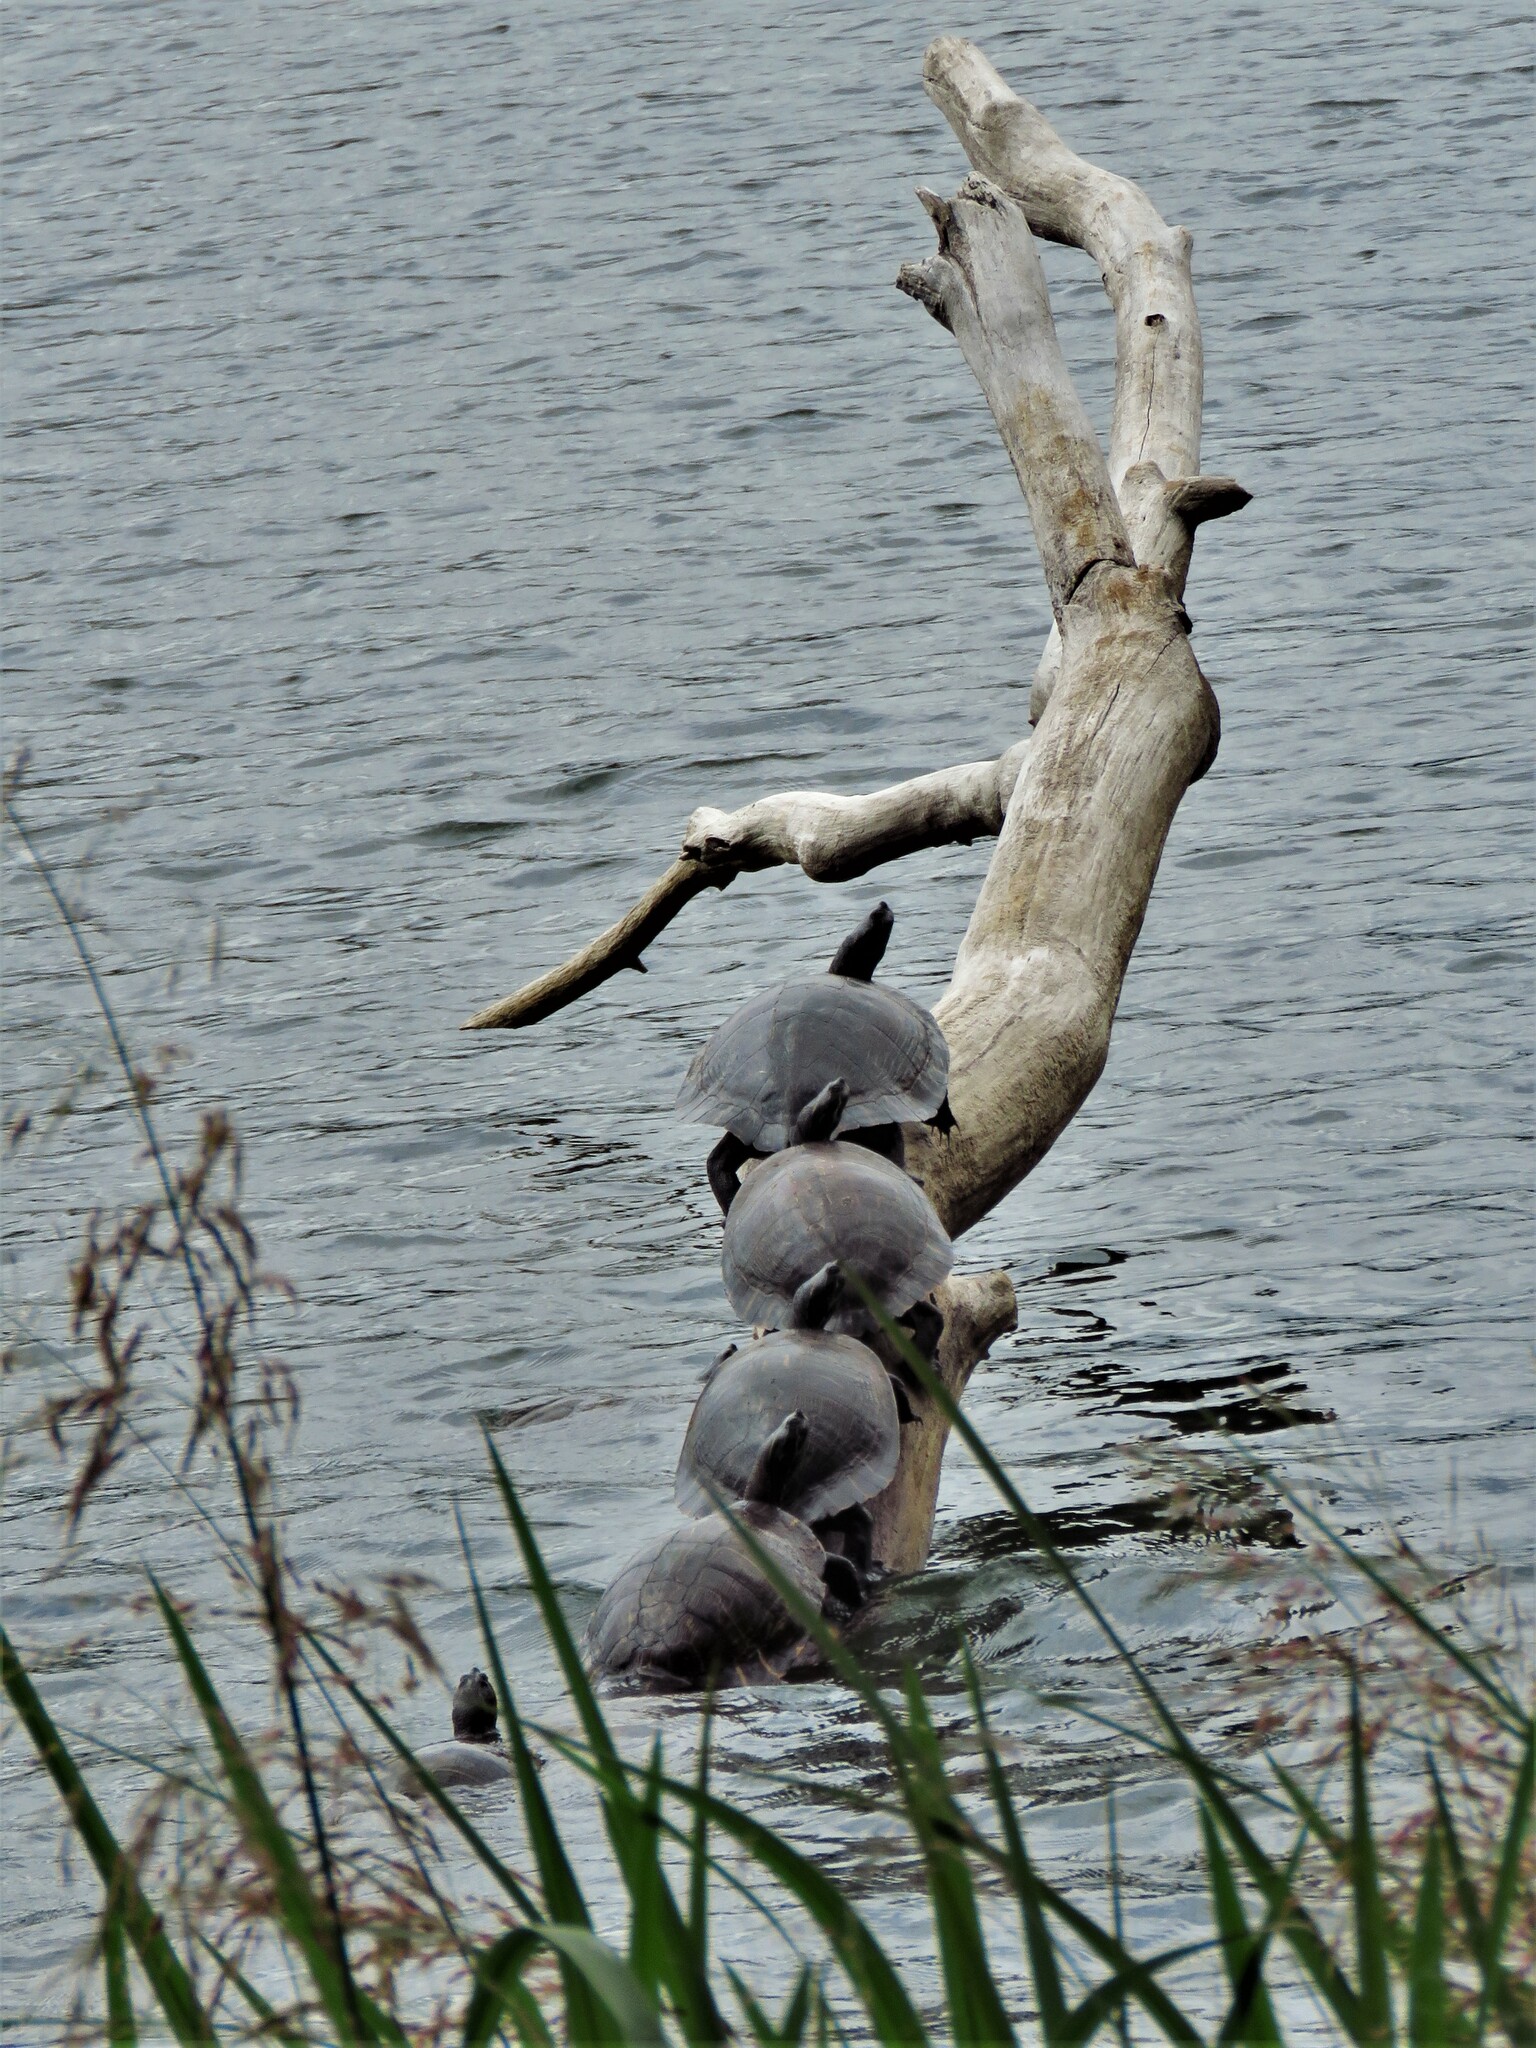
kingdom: Animalia
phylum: Chordata
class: Testudines
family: Emydidae
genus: Pseudemys
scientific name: Pseudemys concinna
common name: Eastern river cooter
